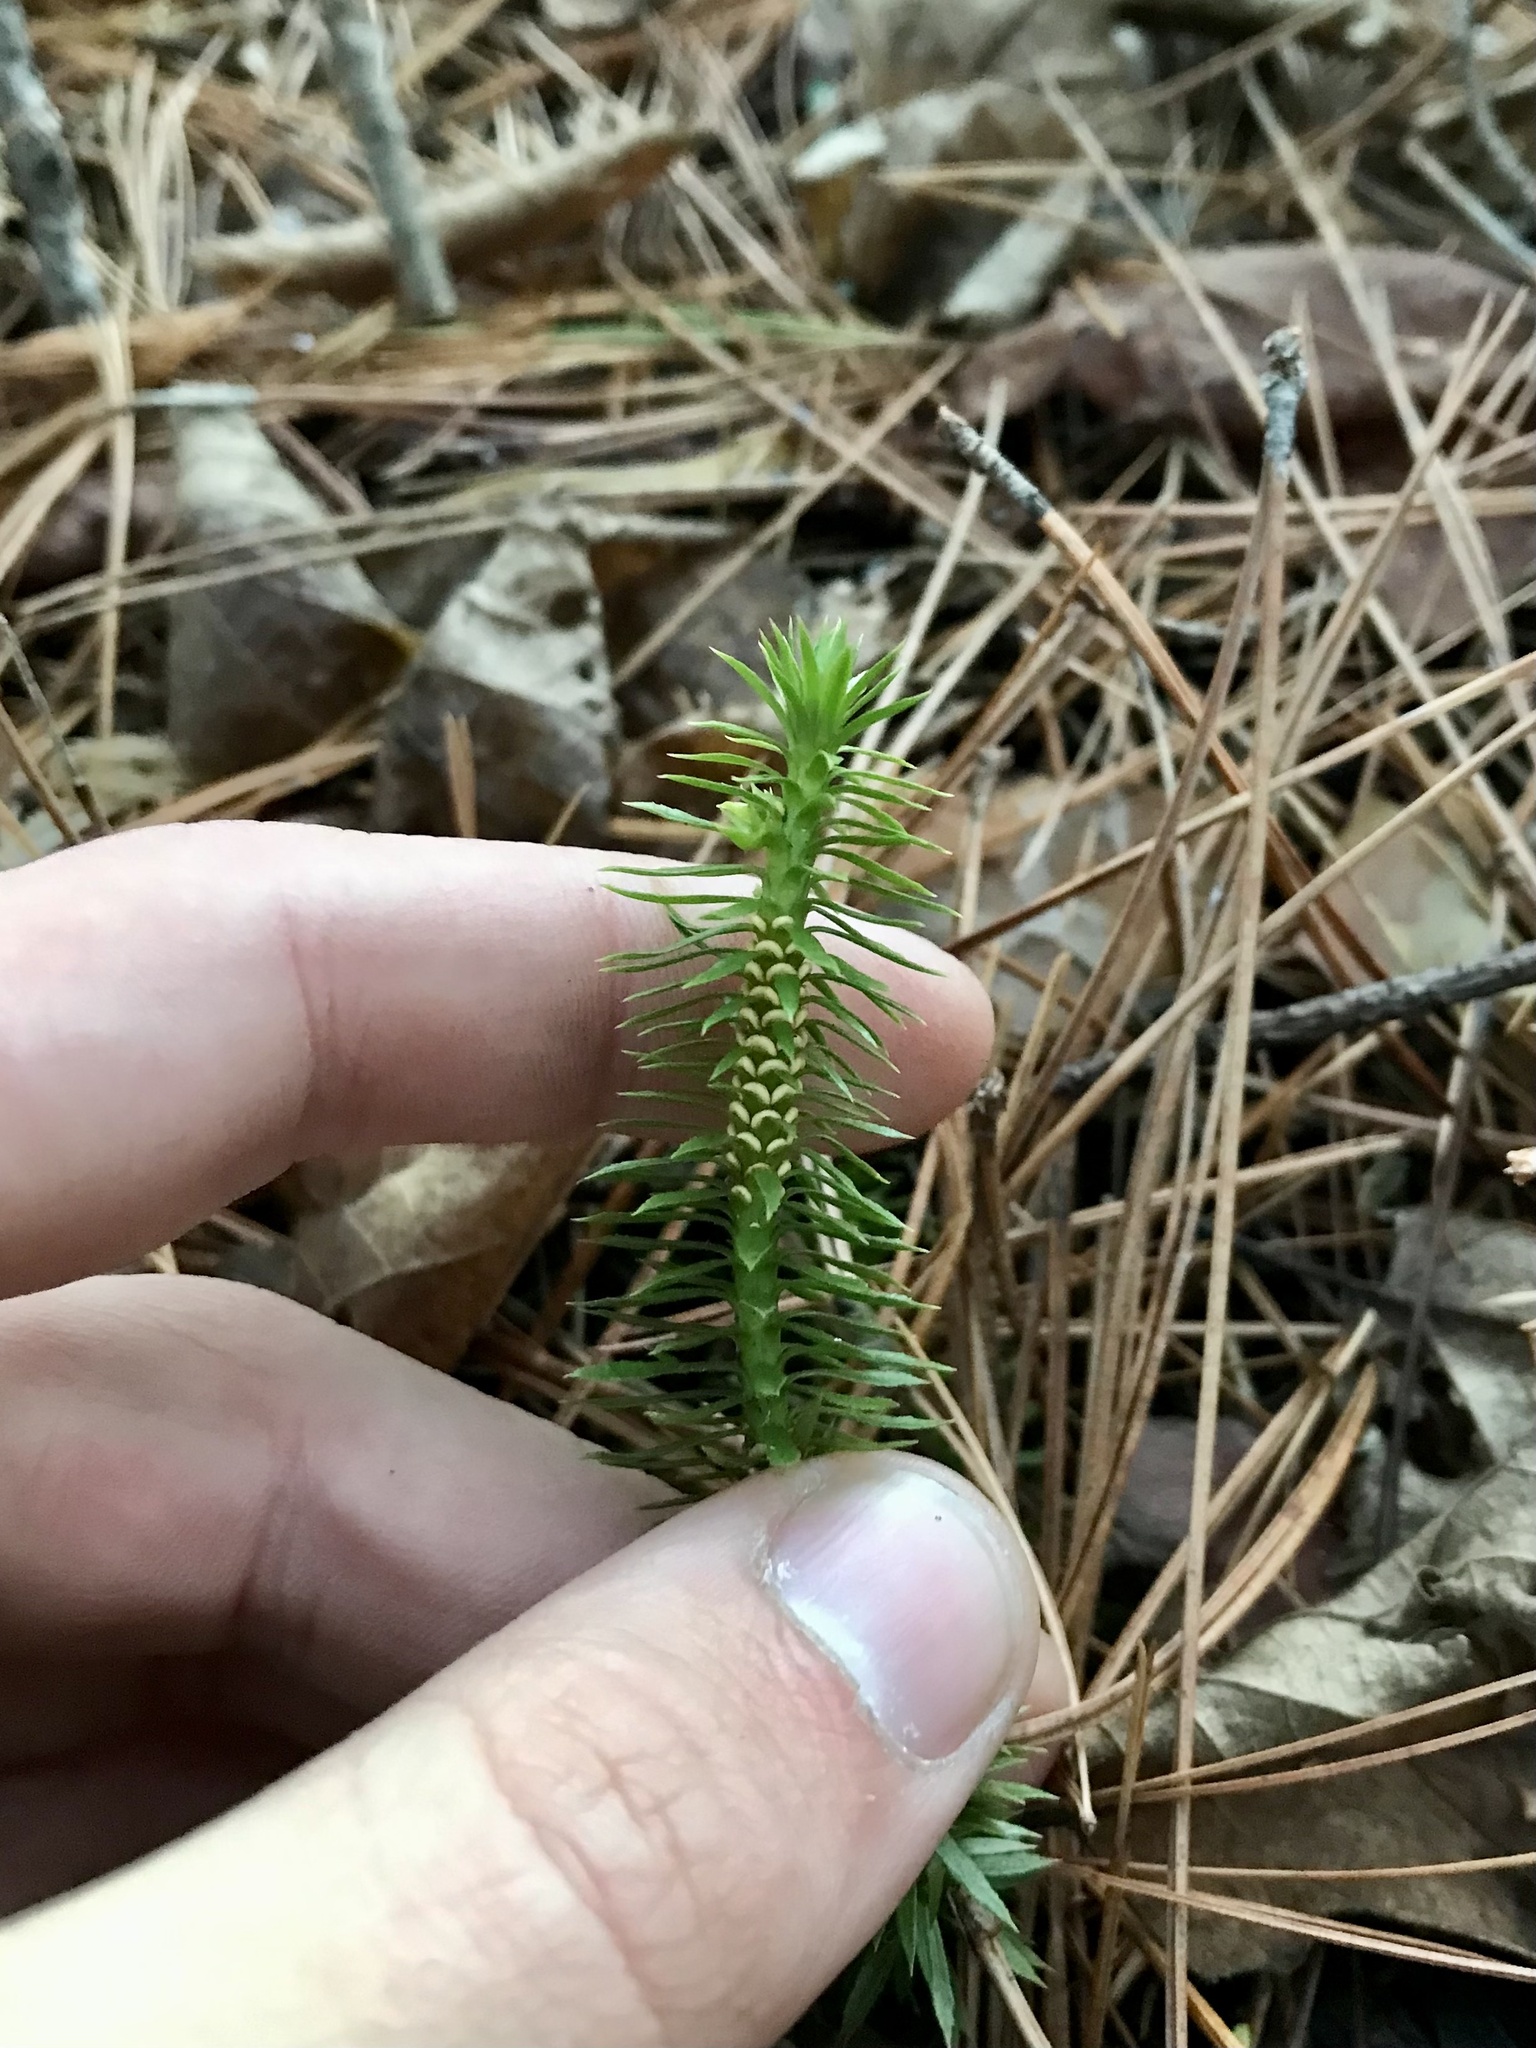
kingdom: Plantae
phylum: Tracheophyta
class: Lycopodiopsida
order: Lycopodiales
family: Lycopodiaceae
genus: Huperzia
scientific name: Huperzia lucidula
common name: Shining clubmoss
